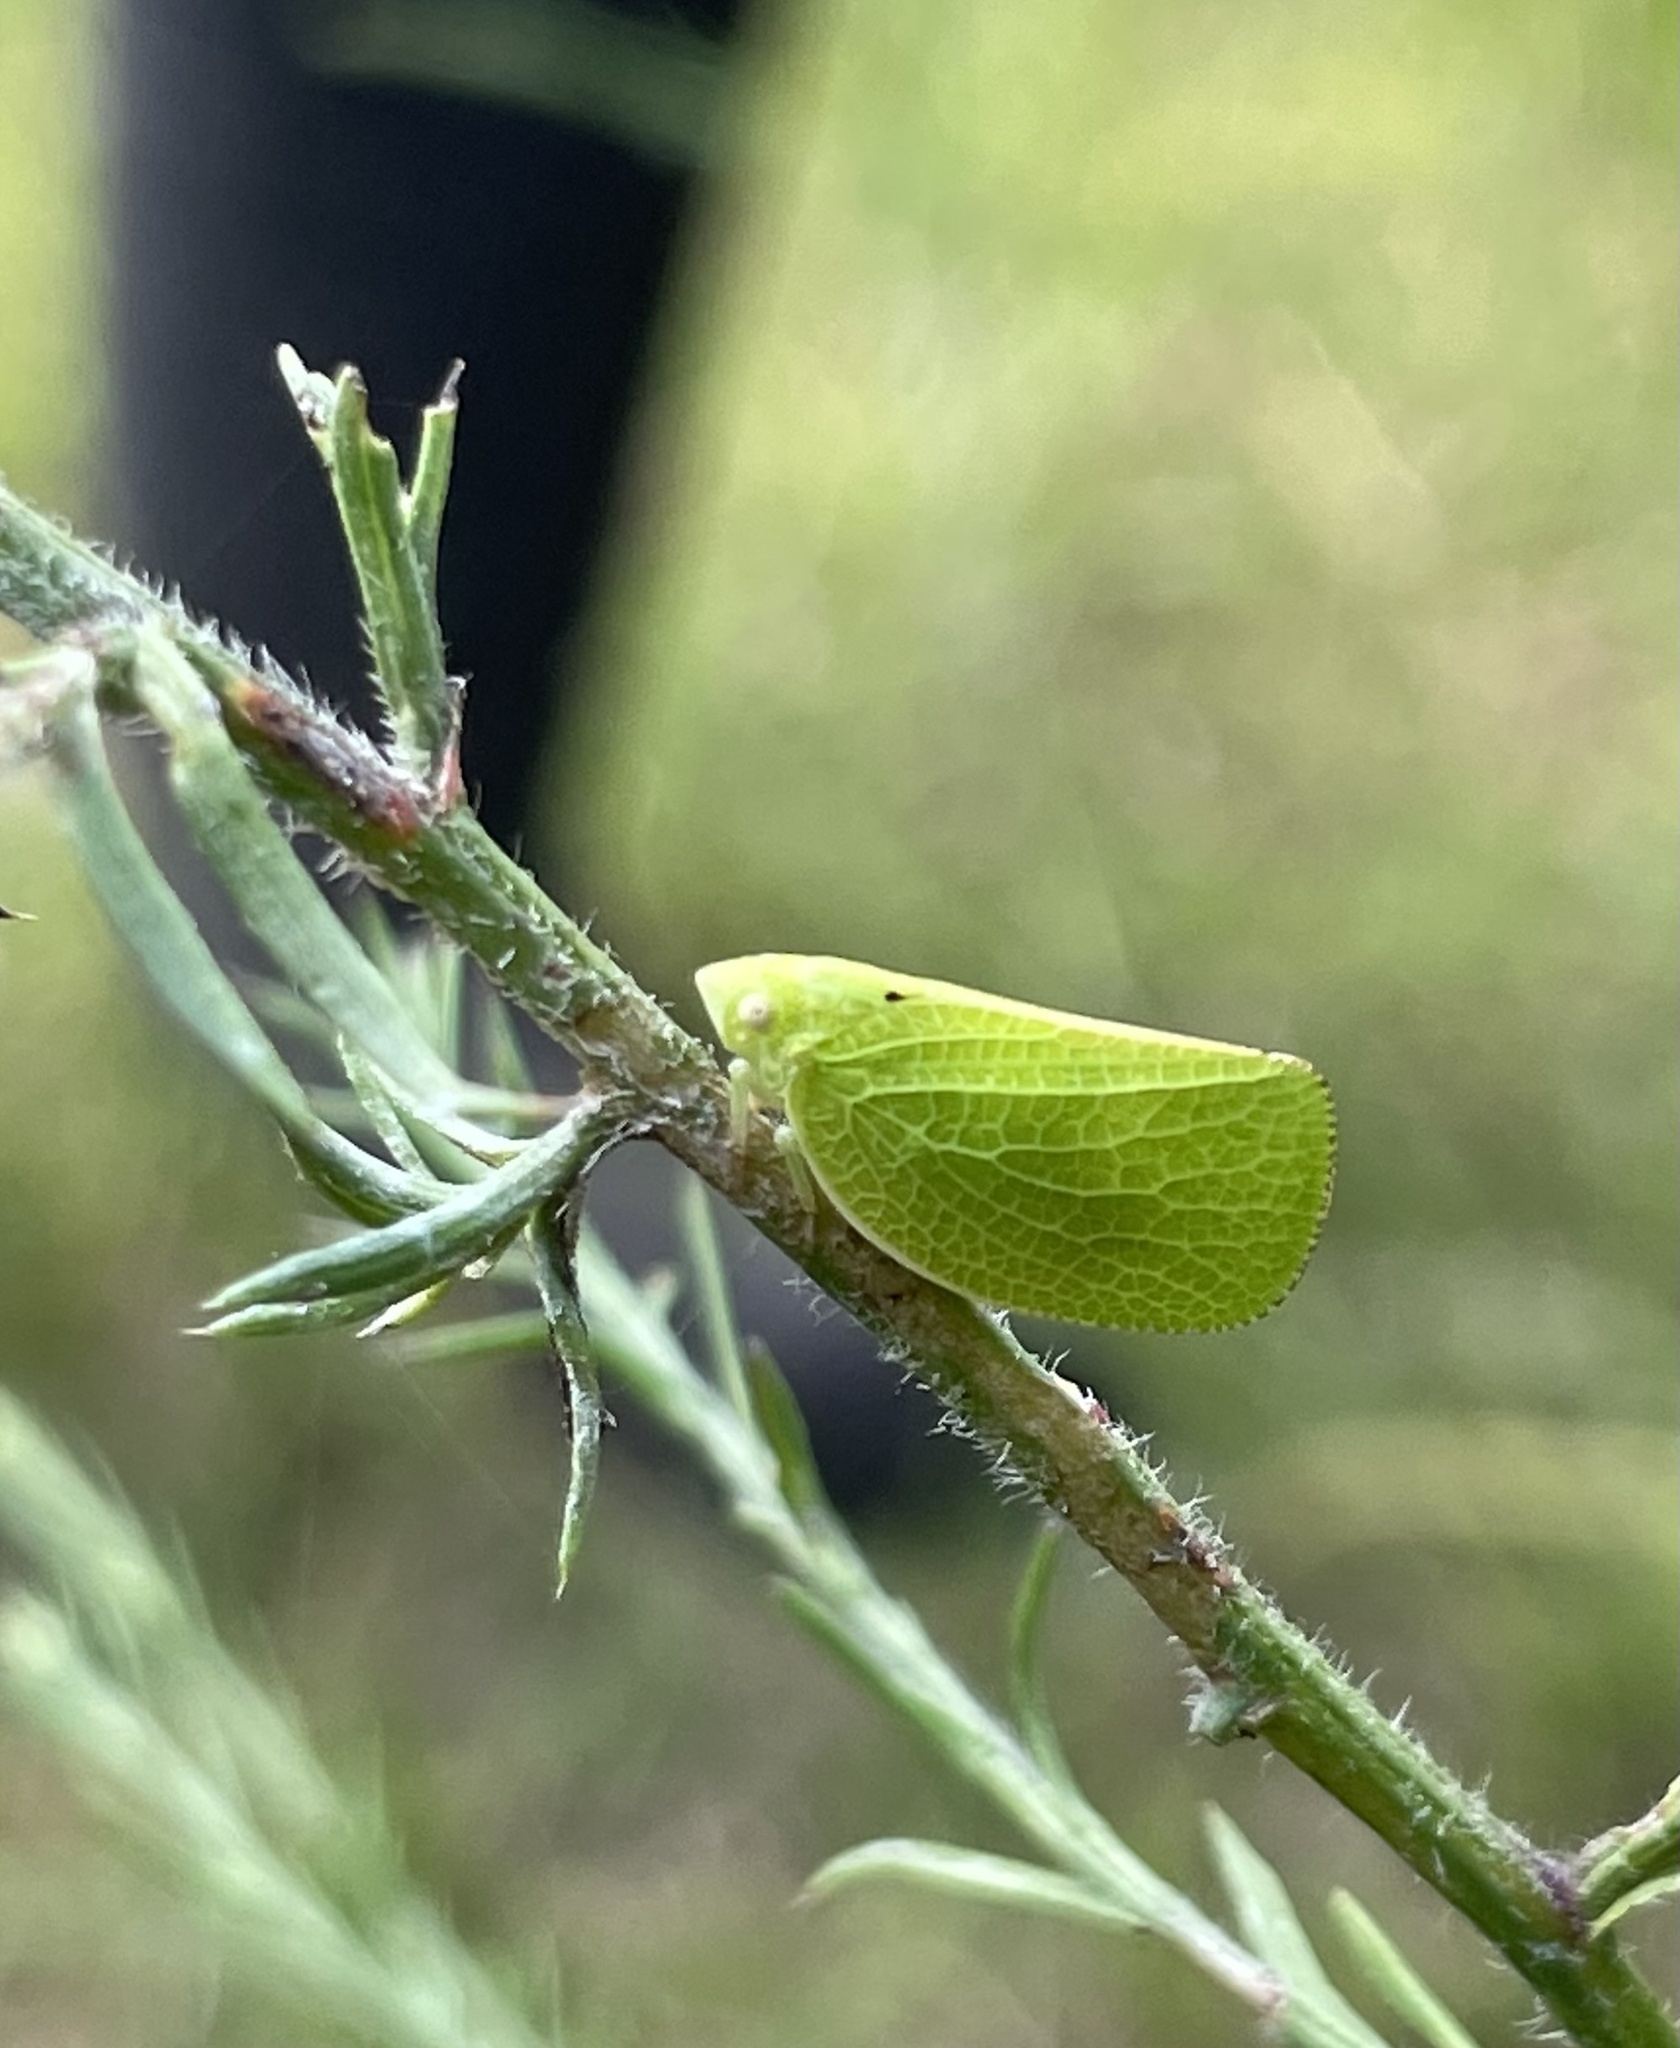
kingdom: Animalia
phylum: Arthropoda
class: Insecta
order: Hemiptera
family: Acanaloniidae
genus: Acanalonia
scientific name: Acanalonia conica
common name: Green cone-headed planthopper
